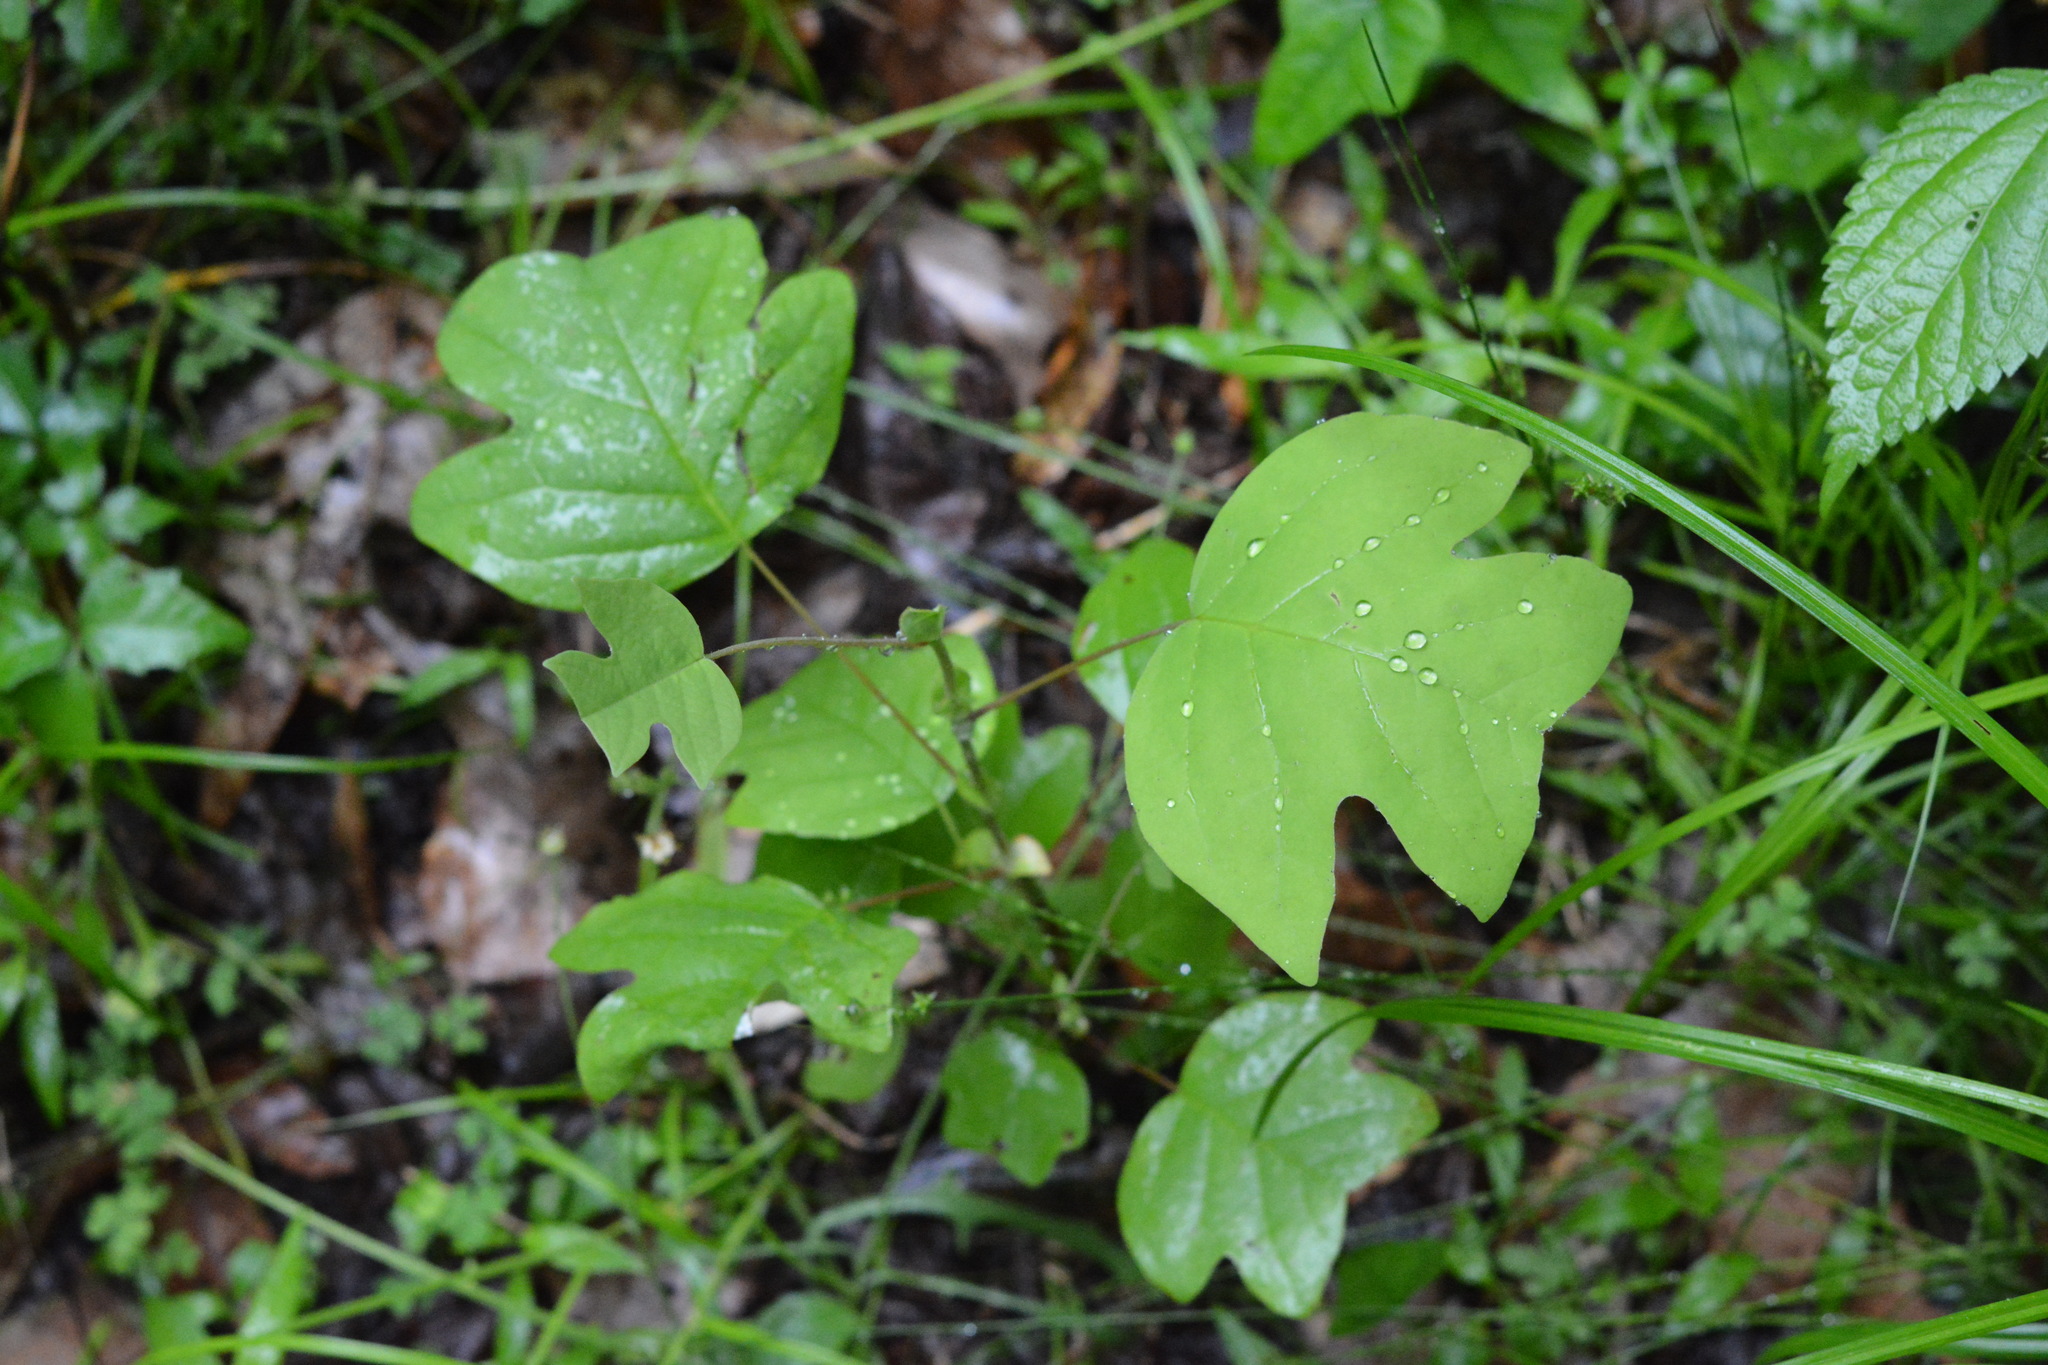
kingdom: Plantae
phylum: Tracheophyta
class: Magnoliopsida
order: Magnoliales
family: Magnoliaceae
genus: Liriodendron
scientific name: Liriodendron tulipifera
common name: Tulip tree
